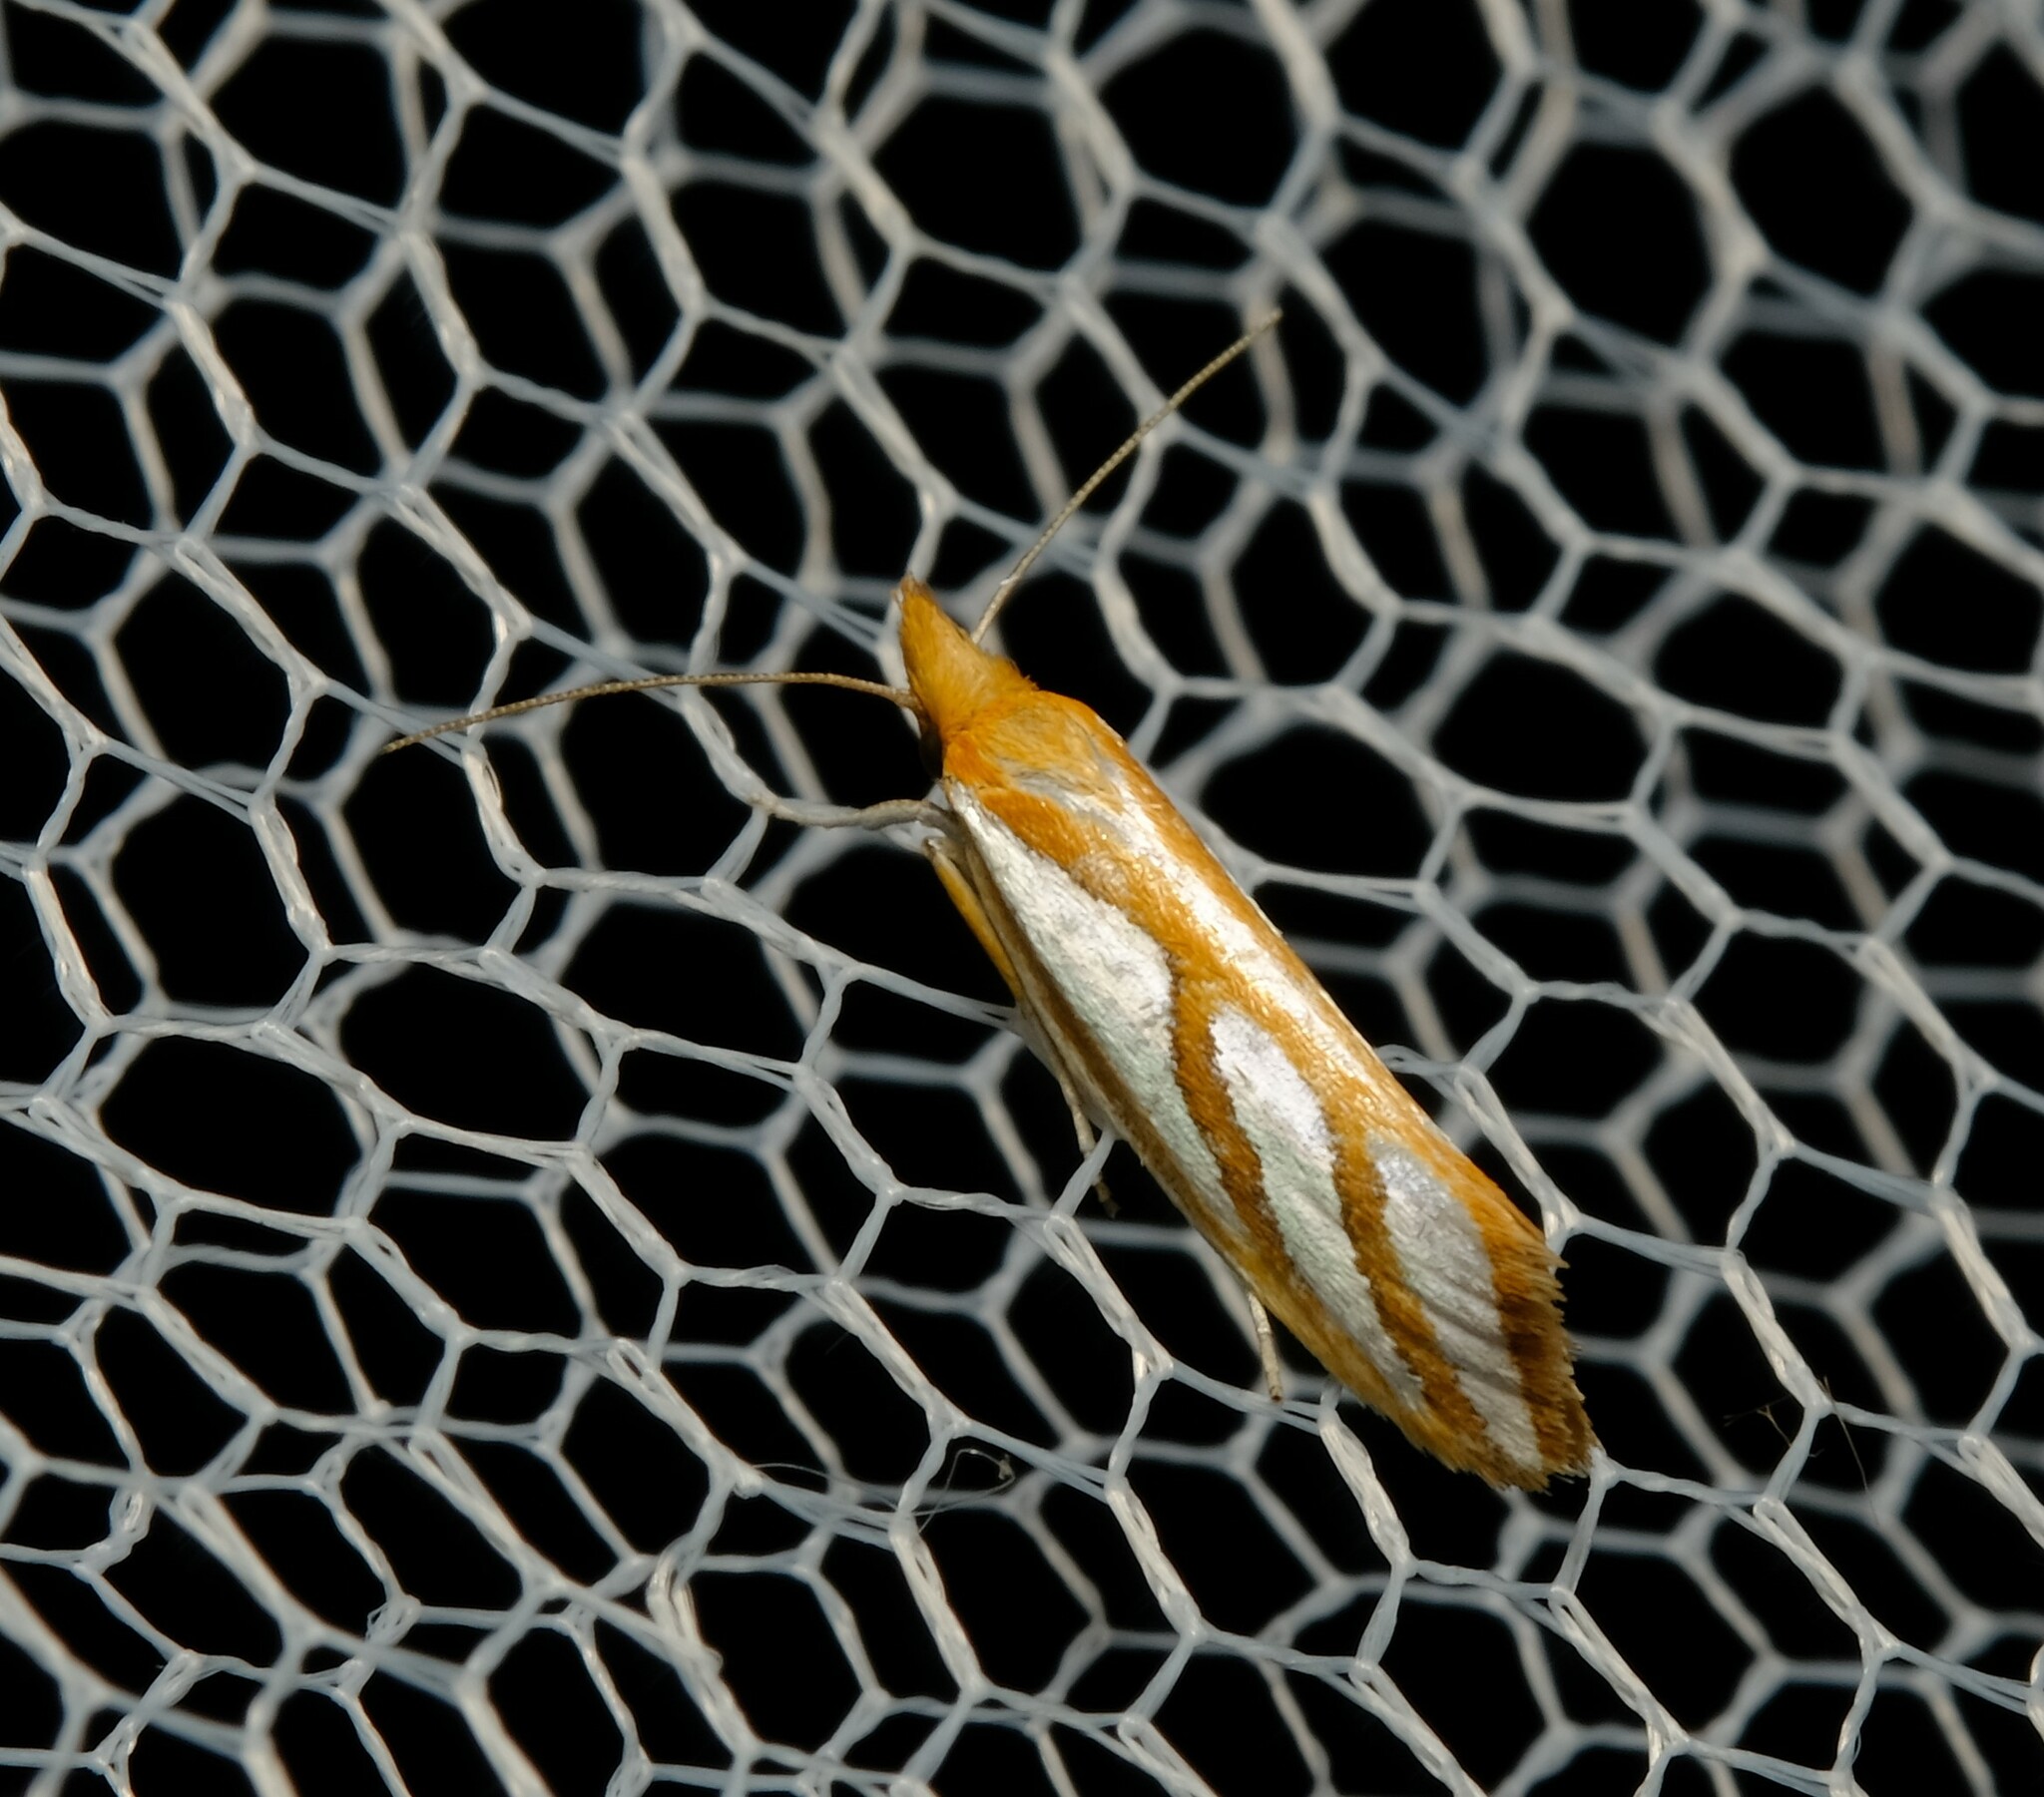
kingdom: Animalia
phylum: Arthropoda
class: Insecta
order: Lepidoptera
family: Depressariidae
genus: Thudaca
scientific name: Thudaca obliquella
